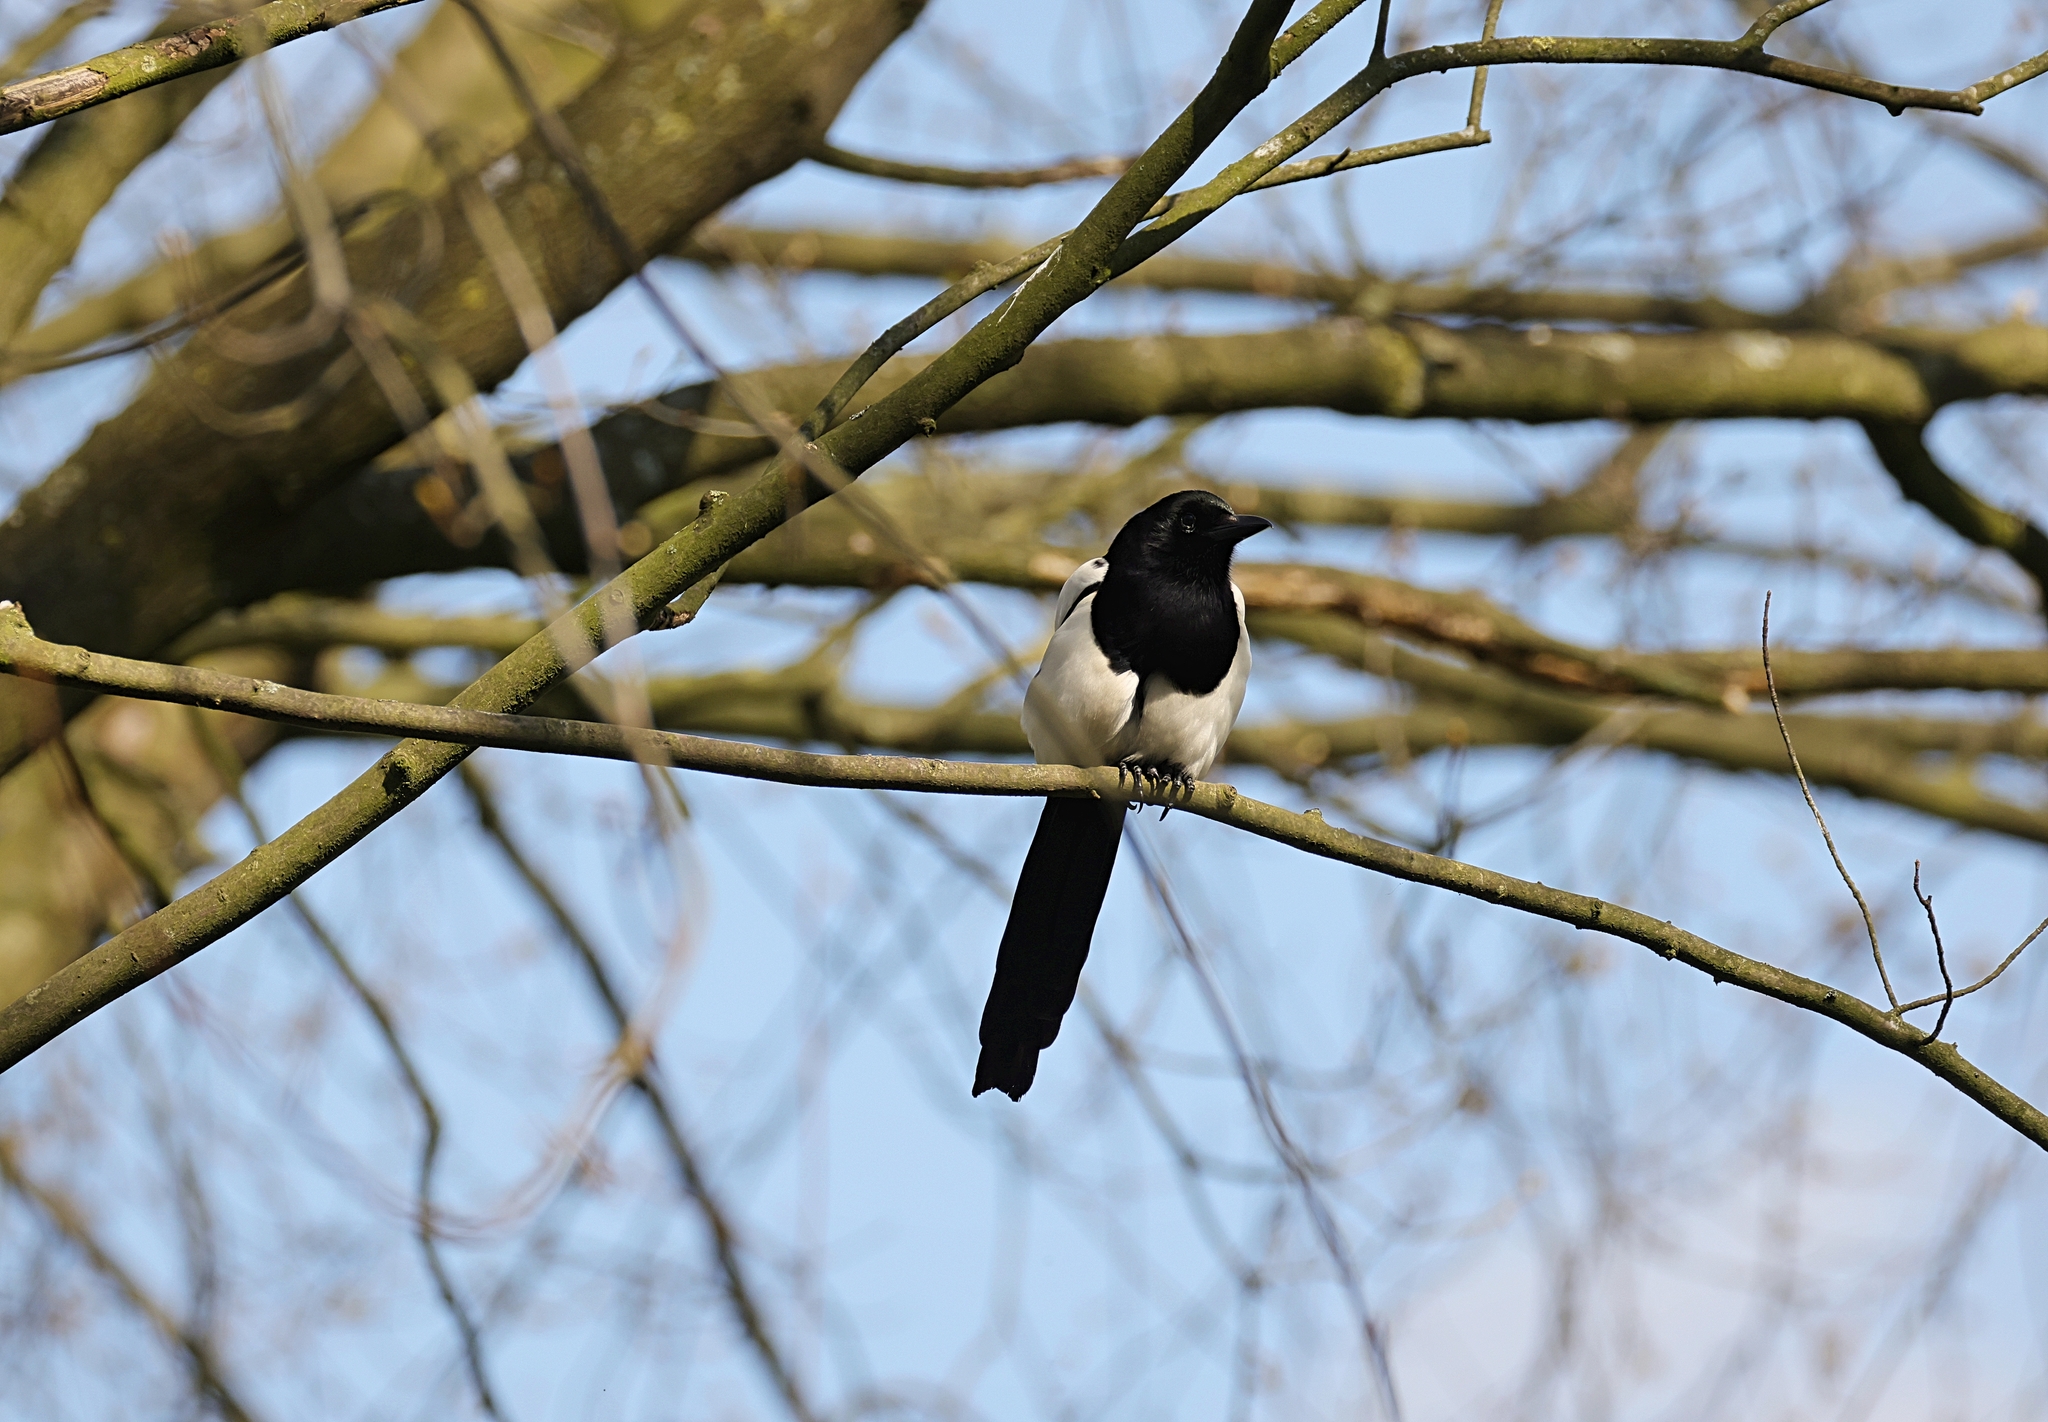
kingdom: Animalia
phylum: Chordata
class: Aves
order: Passeriformes
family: Corvidae
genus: Pica
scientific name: Pica pica
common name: Eurasian magpie
